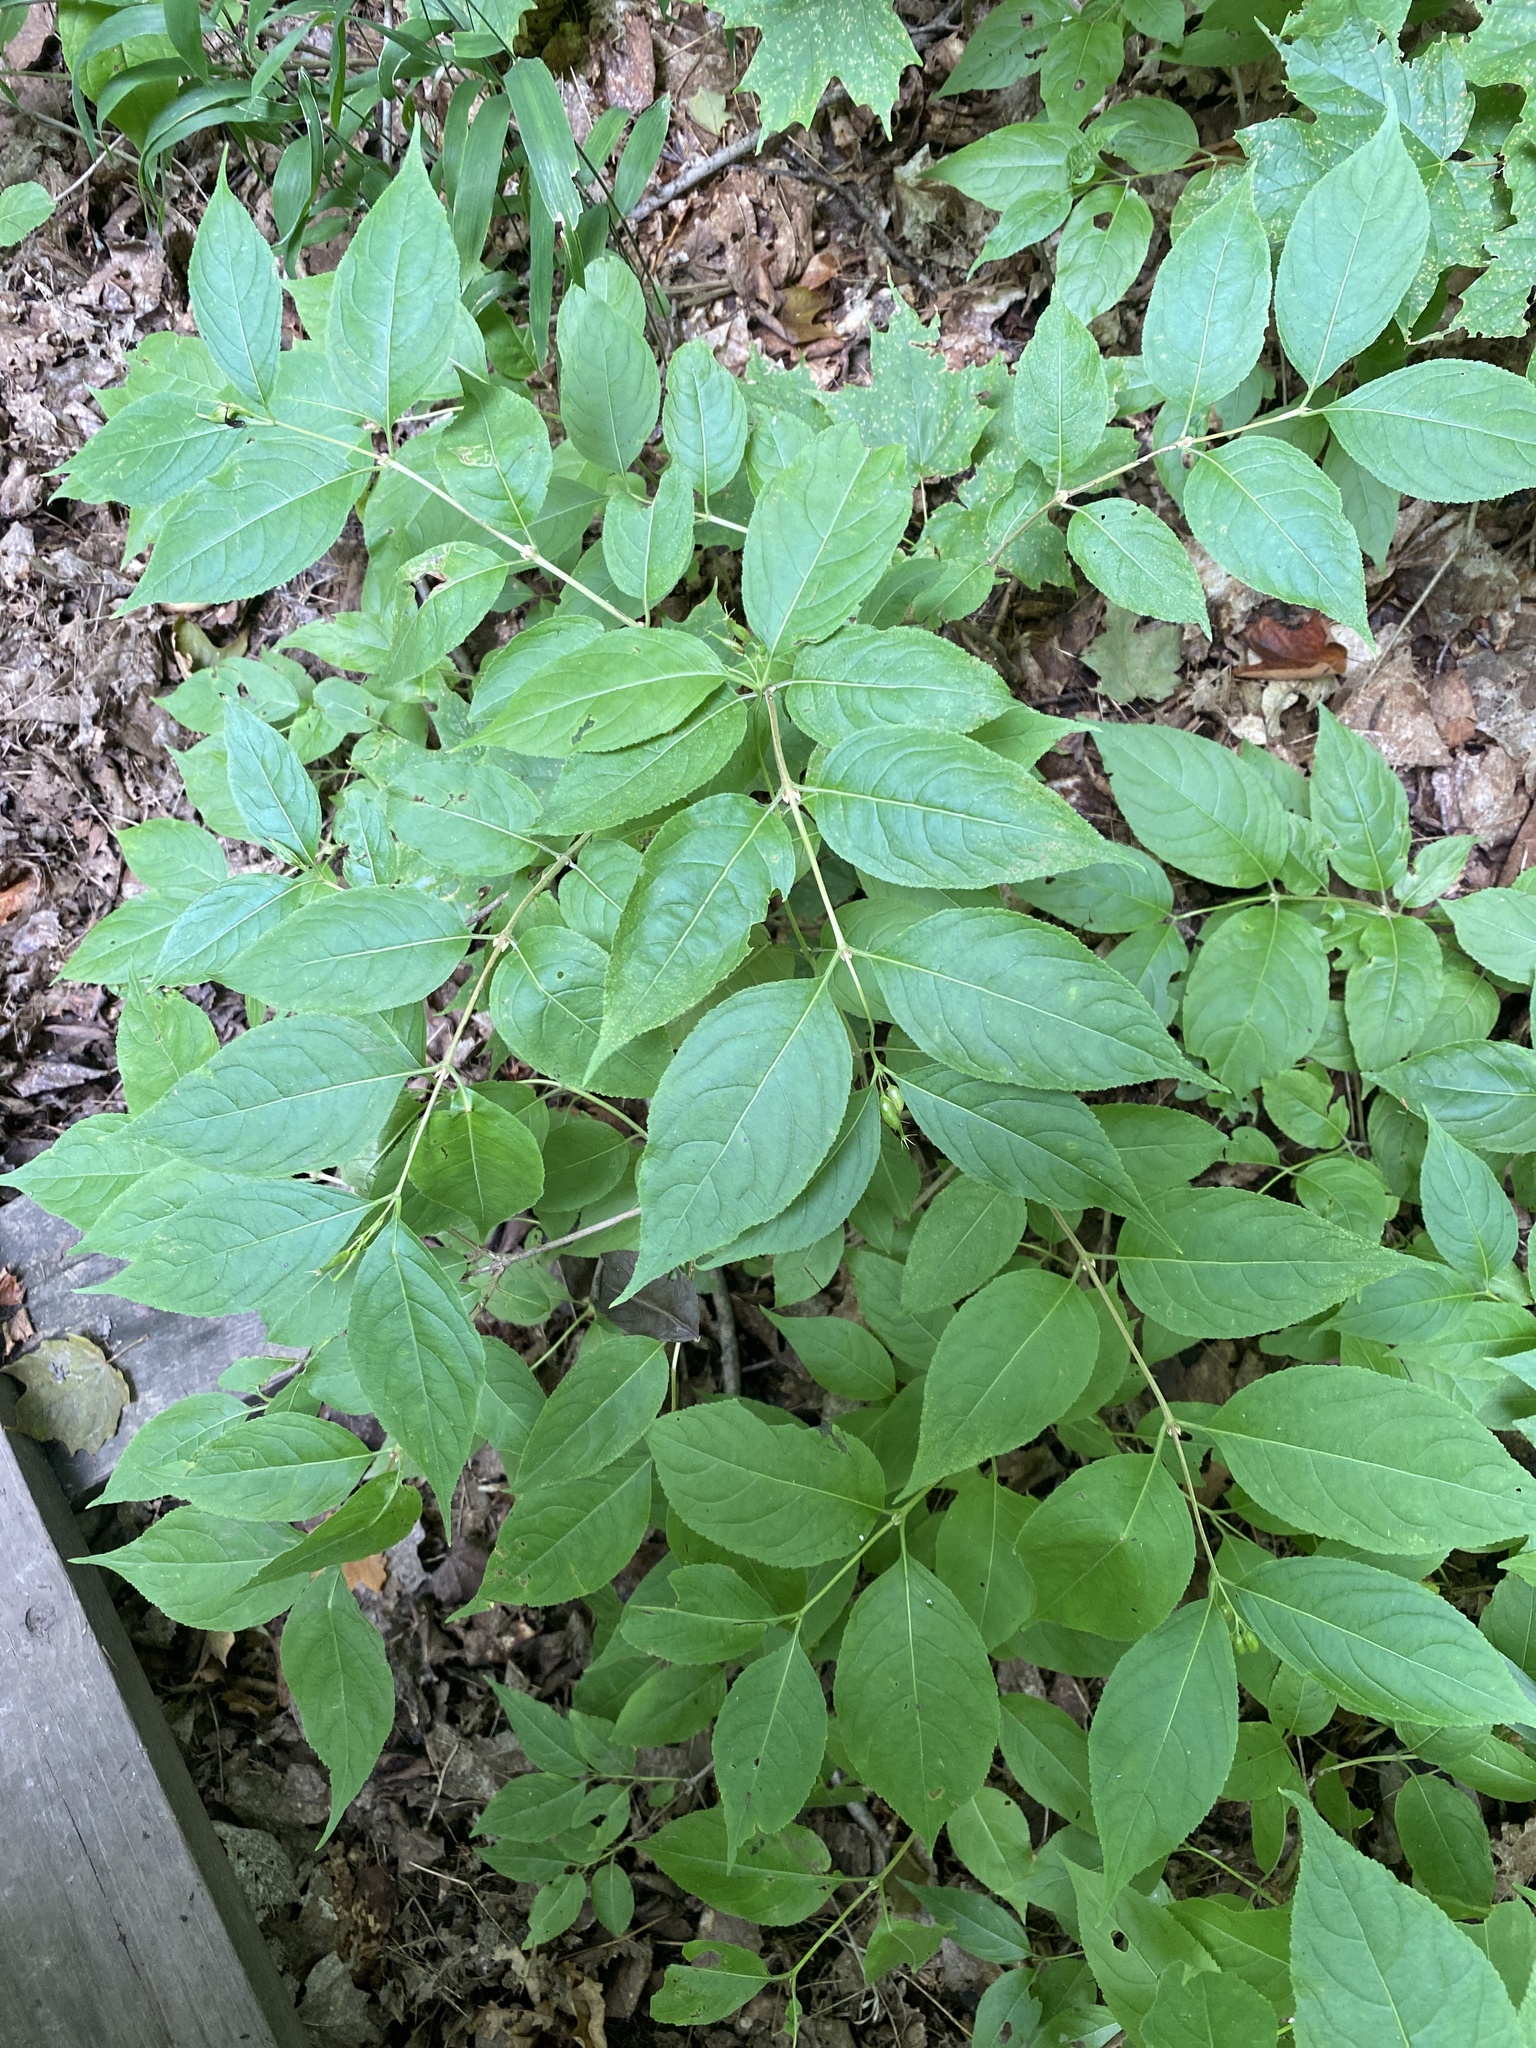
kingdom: Plantae
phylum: Tracheophyta
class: Magnoliopsida
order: Dipsacales
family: Caprifoliaceae
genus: Diervilla
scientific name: Diervilla lonicera
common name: Bush-honeysuckle
